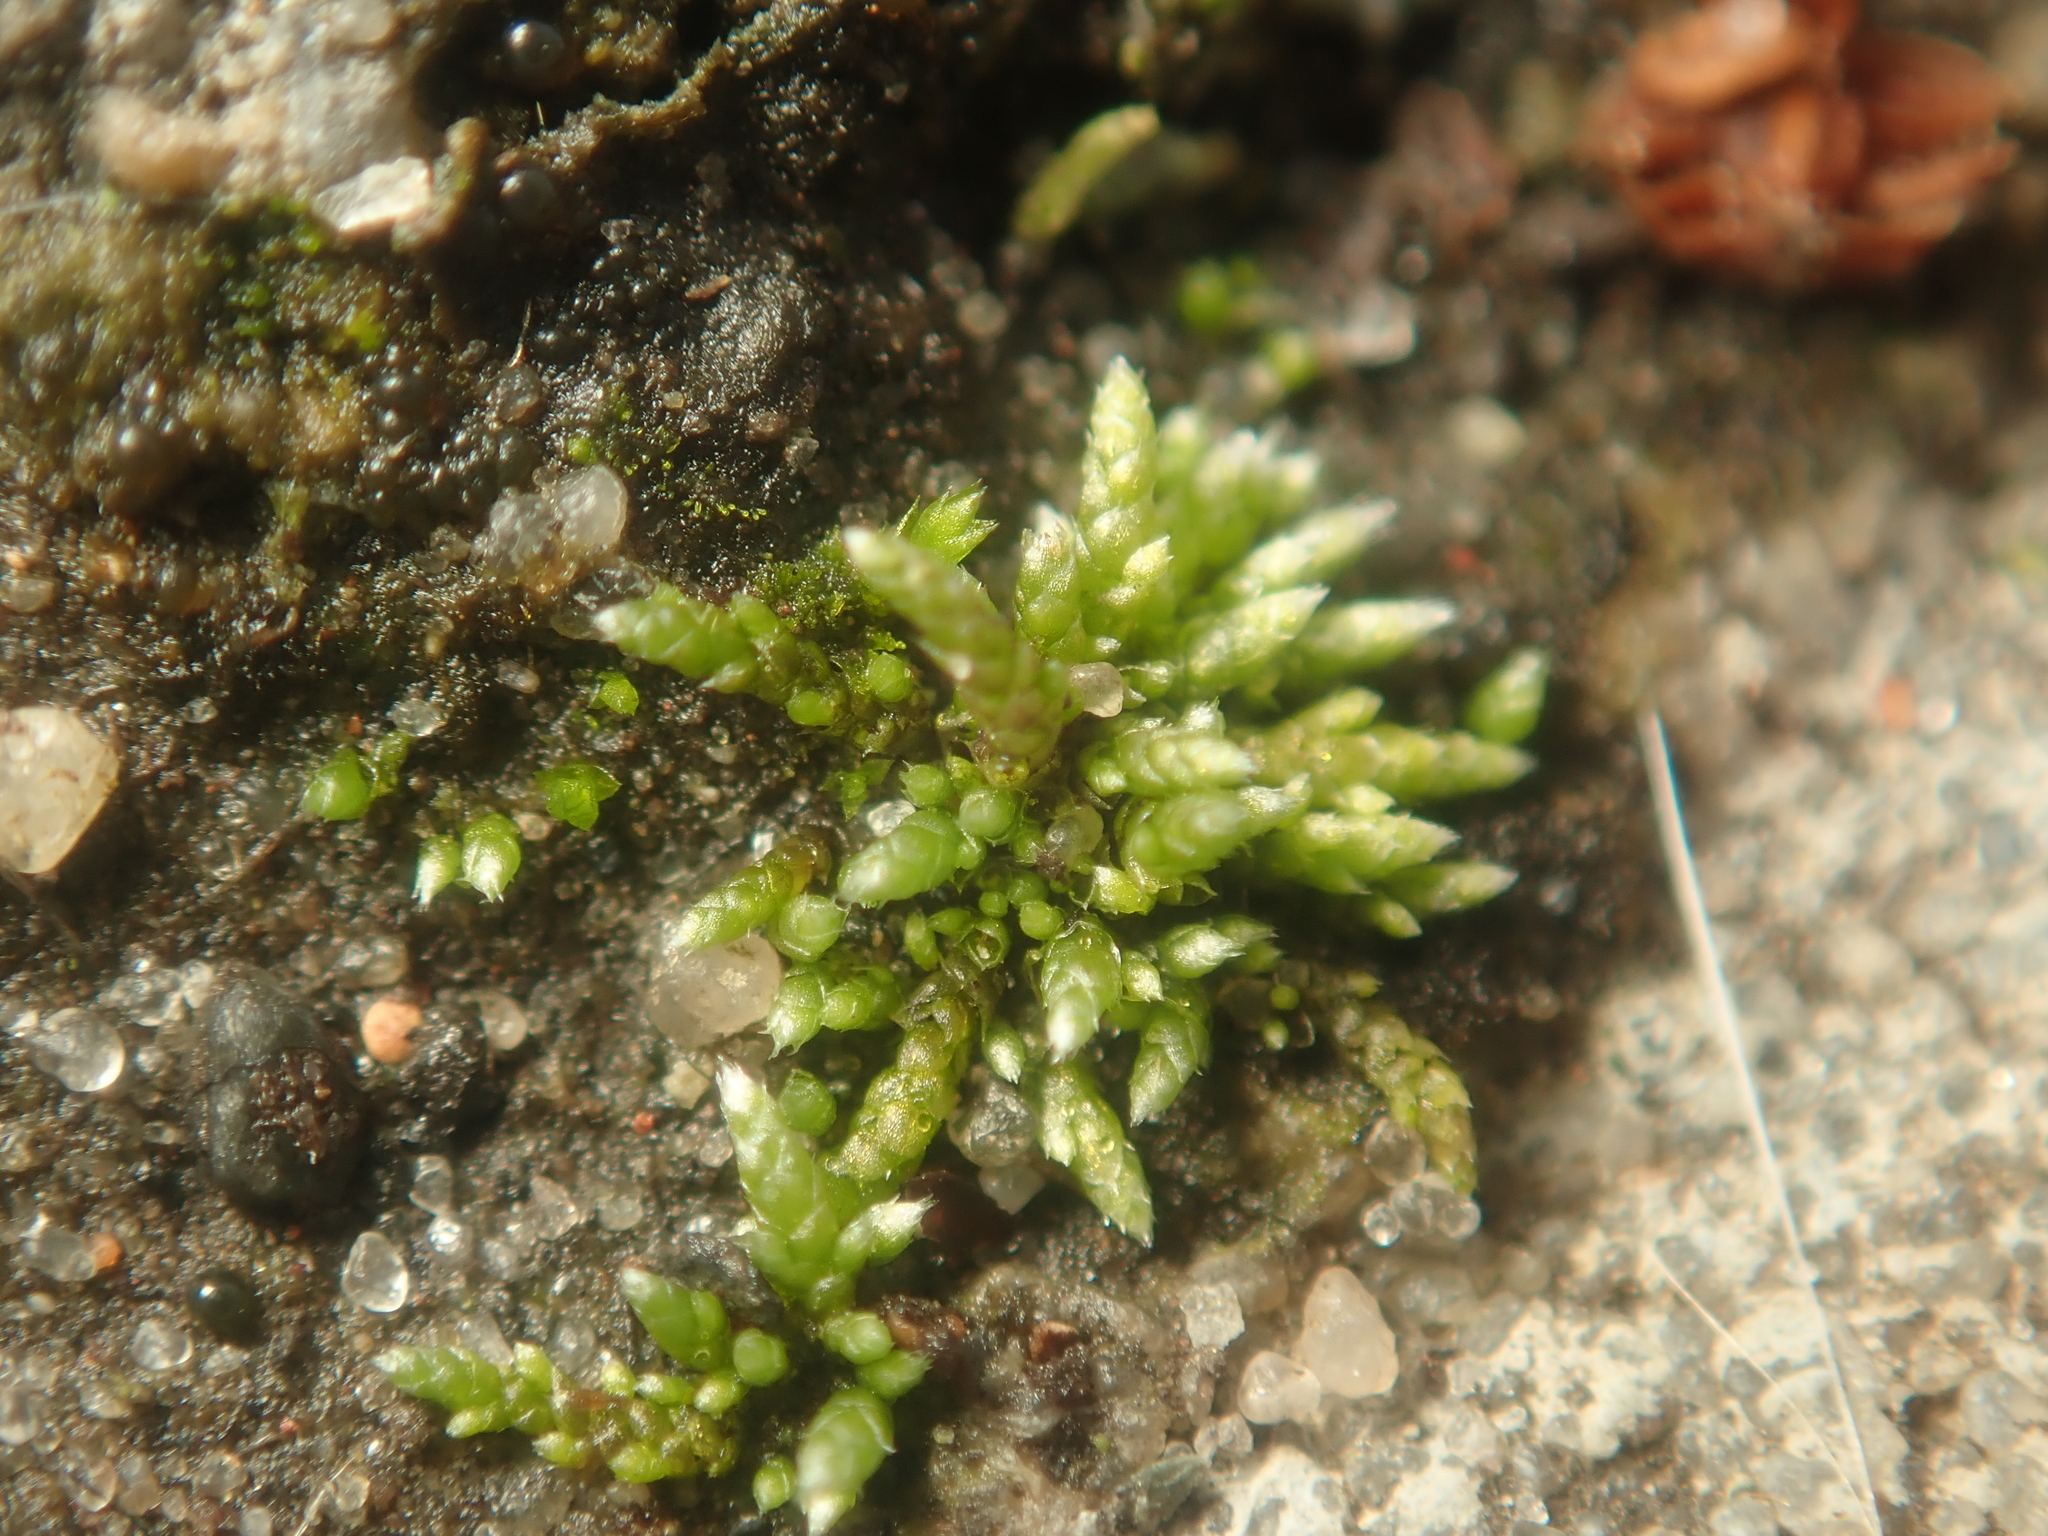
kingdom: Plantae
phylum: Bryophyta
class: Bryopsida
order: Bryales
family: Bryaceae
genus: Bryum
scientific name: Bryum argenteum
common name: Silver-moss
